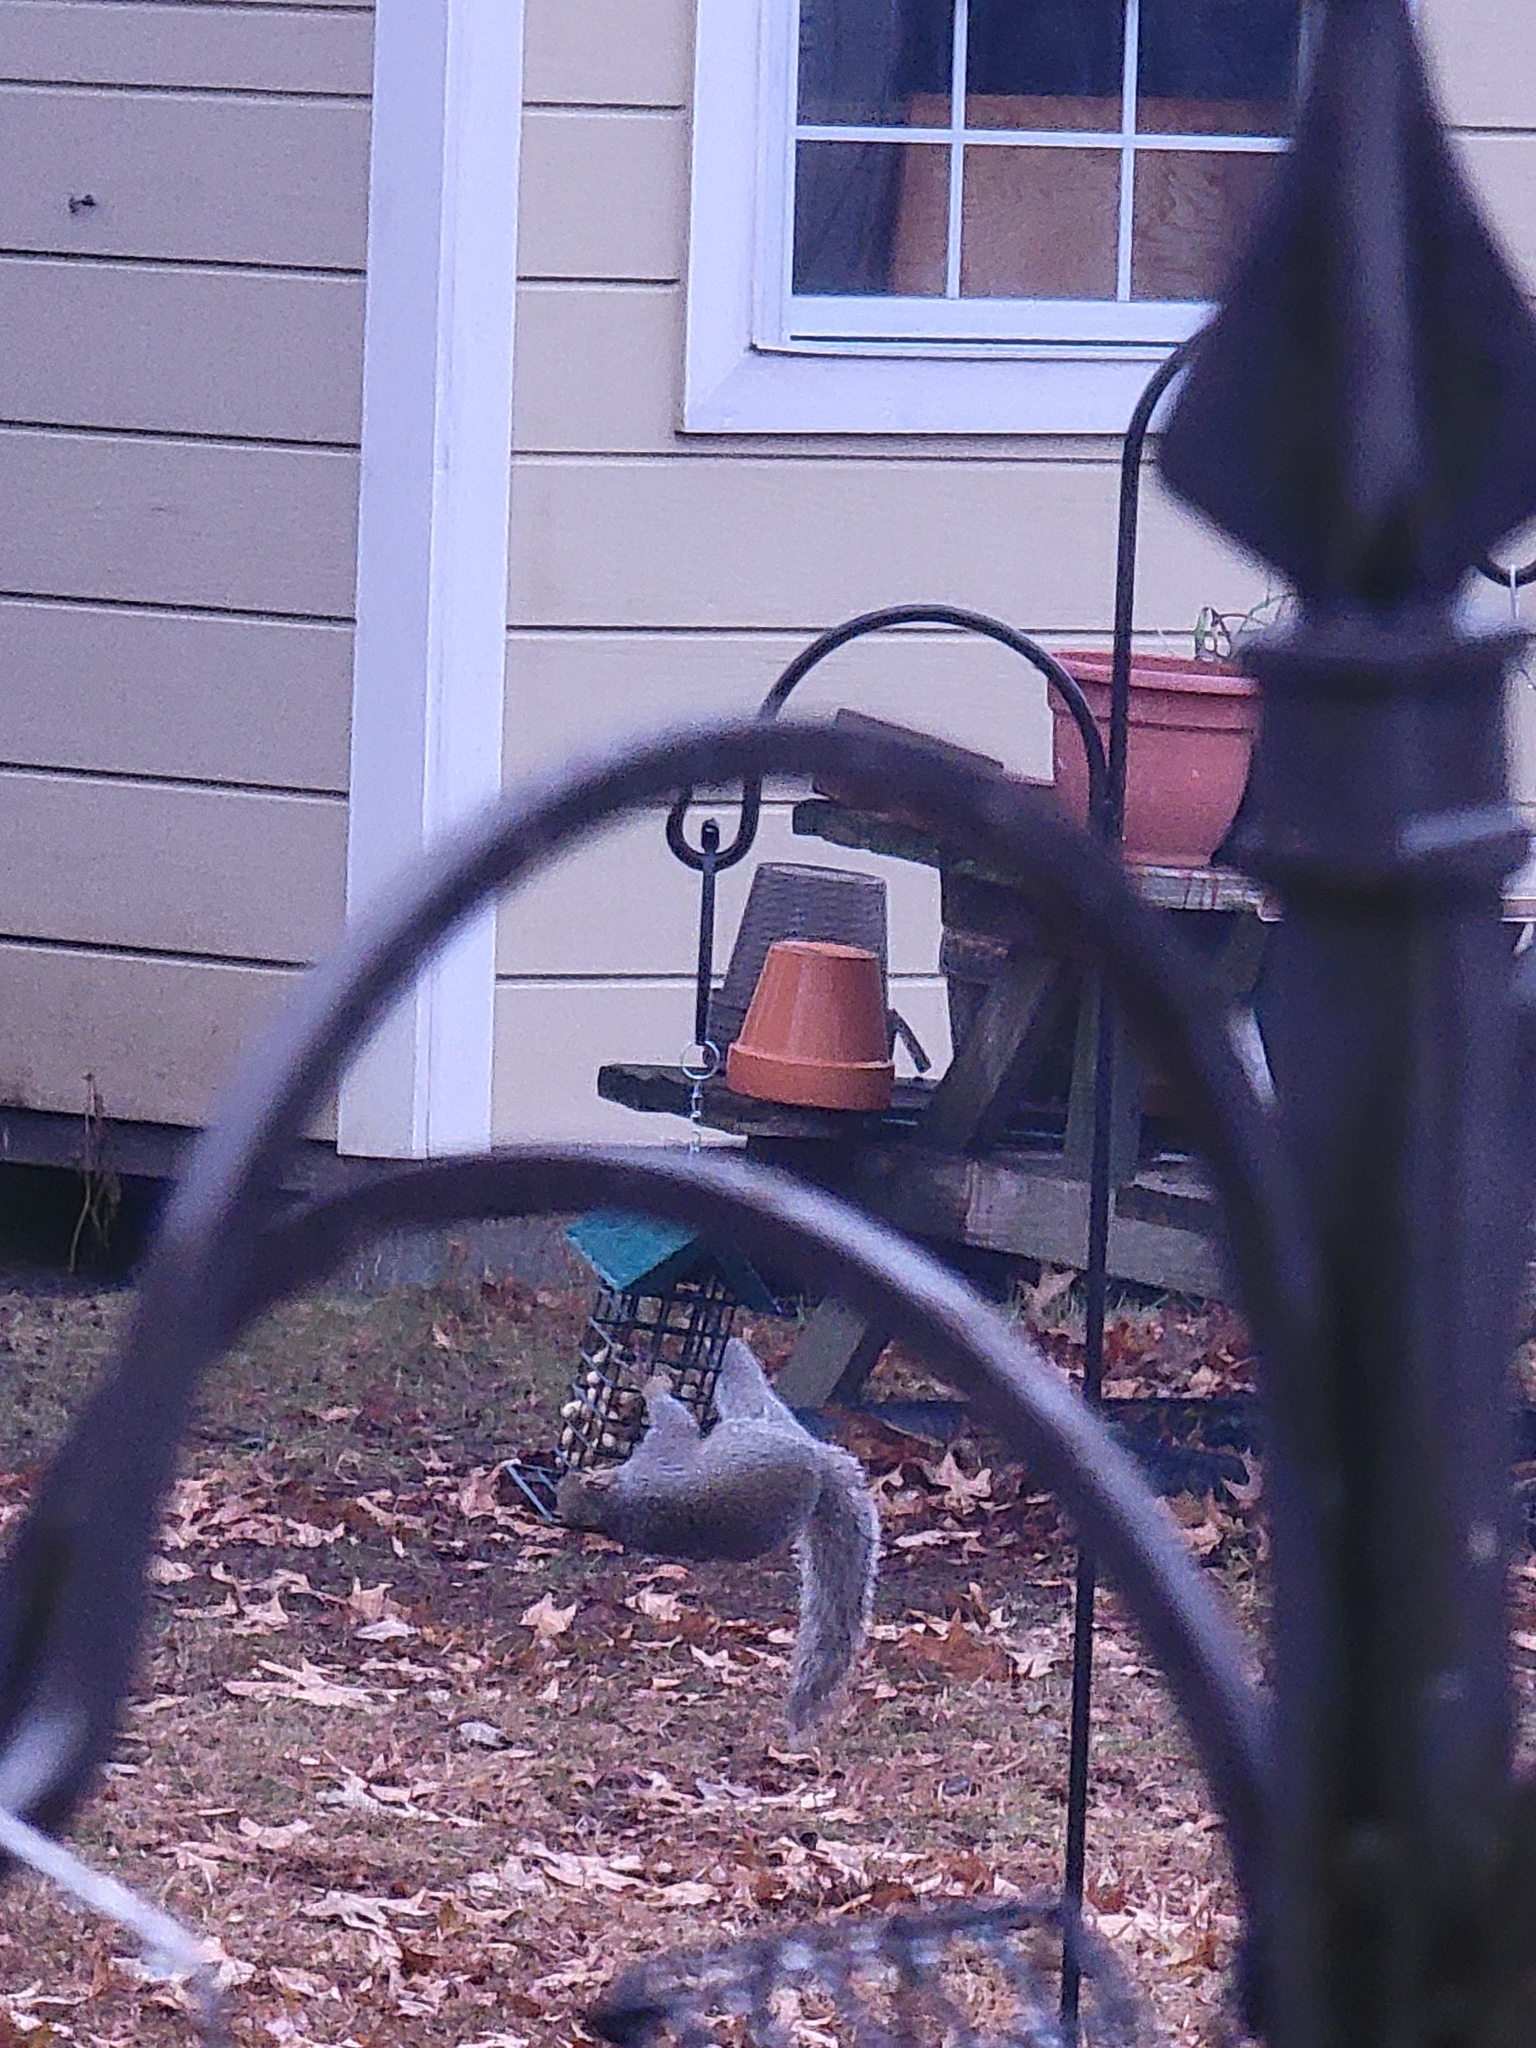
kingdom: Animalia
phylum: Chordata
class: Mammalia
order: Rodentia
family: Sciuridae
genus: Sciurus
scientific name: Sciurus carolinensis
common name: Eastern gray squirrel
